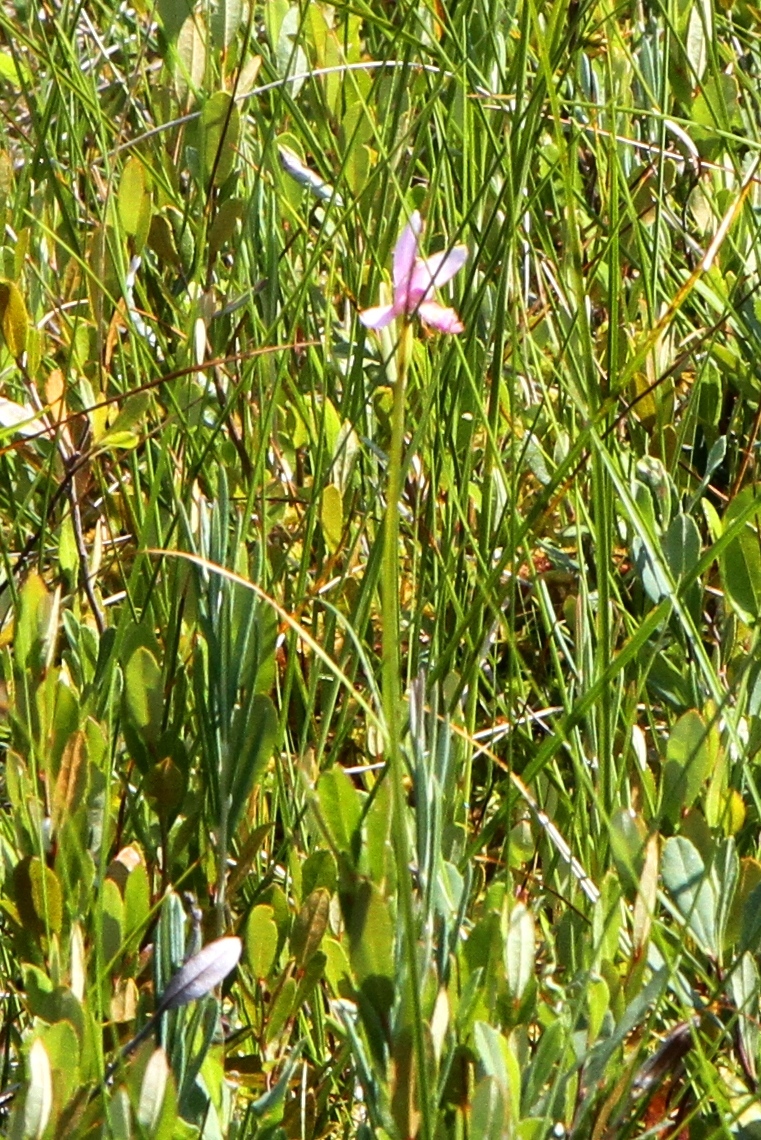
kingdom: Plantae
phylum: Tracheophyta
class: Liliopsida
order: Asparagales
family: Orchidaceae
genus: Pogonia
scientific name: Pogonia ophioglossoides
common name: Rose pogonia
